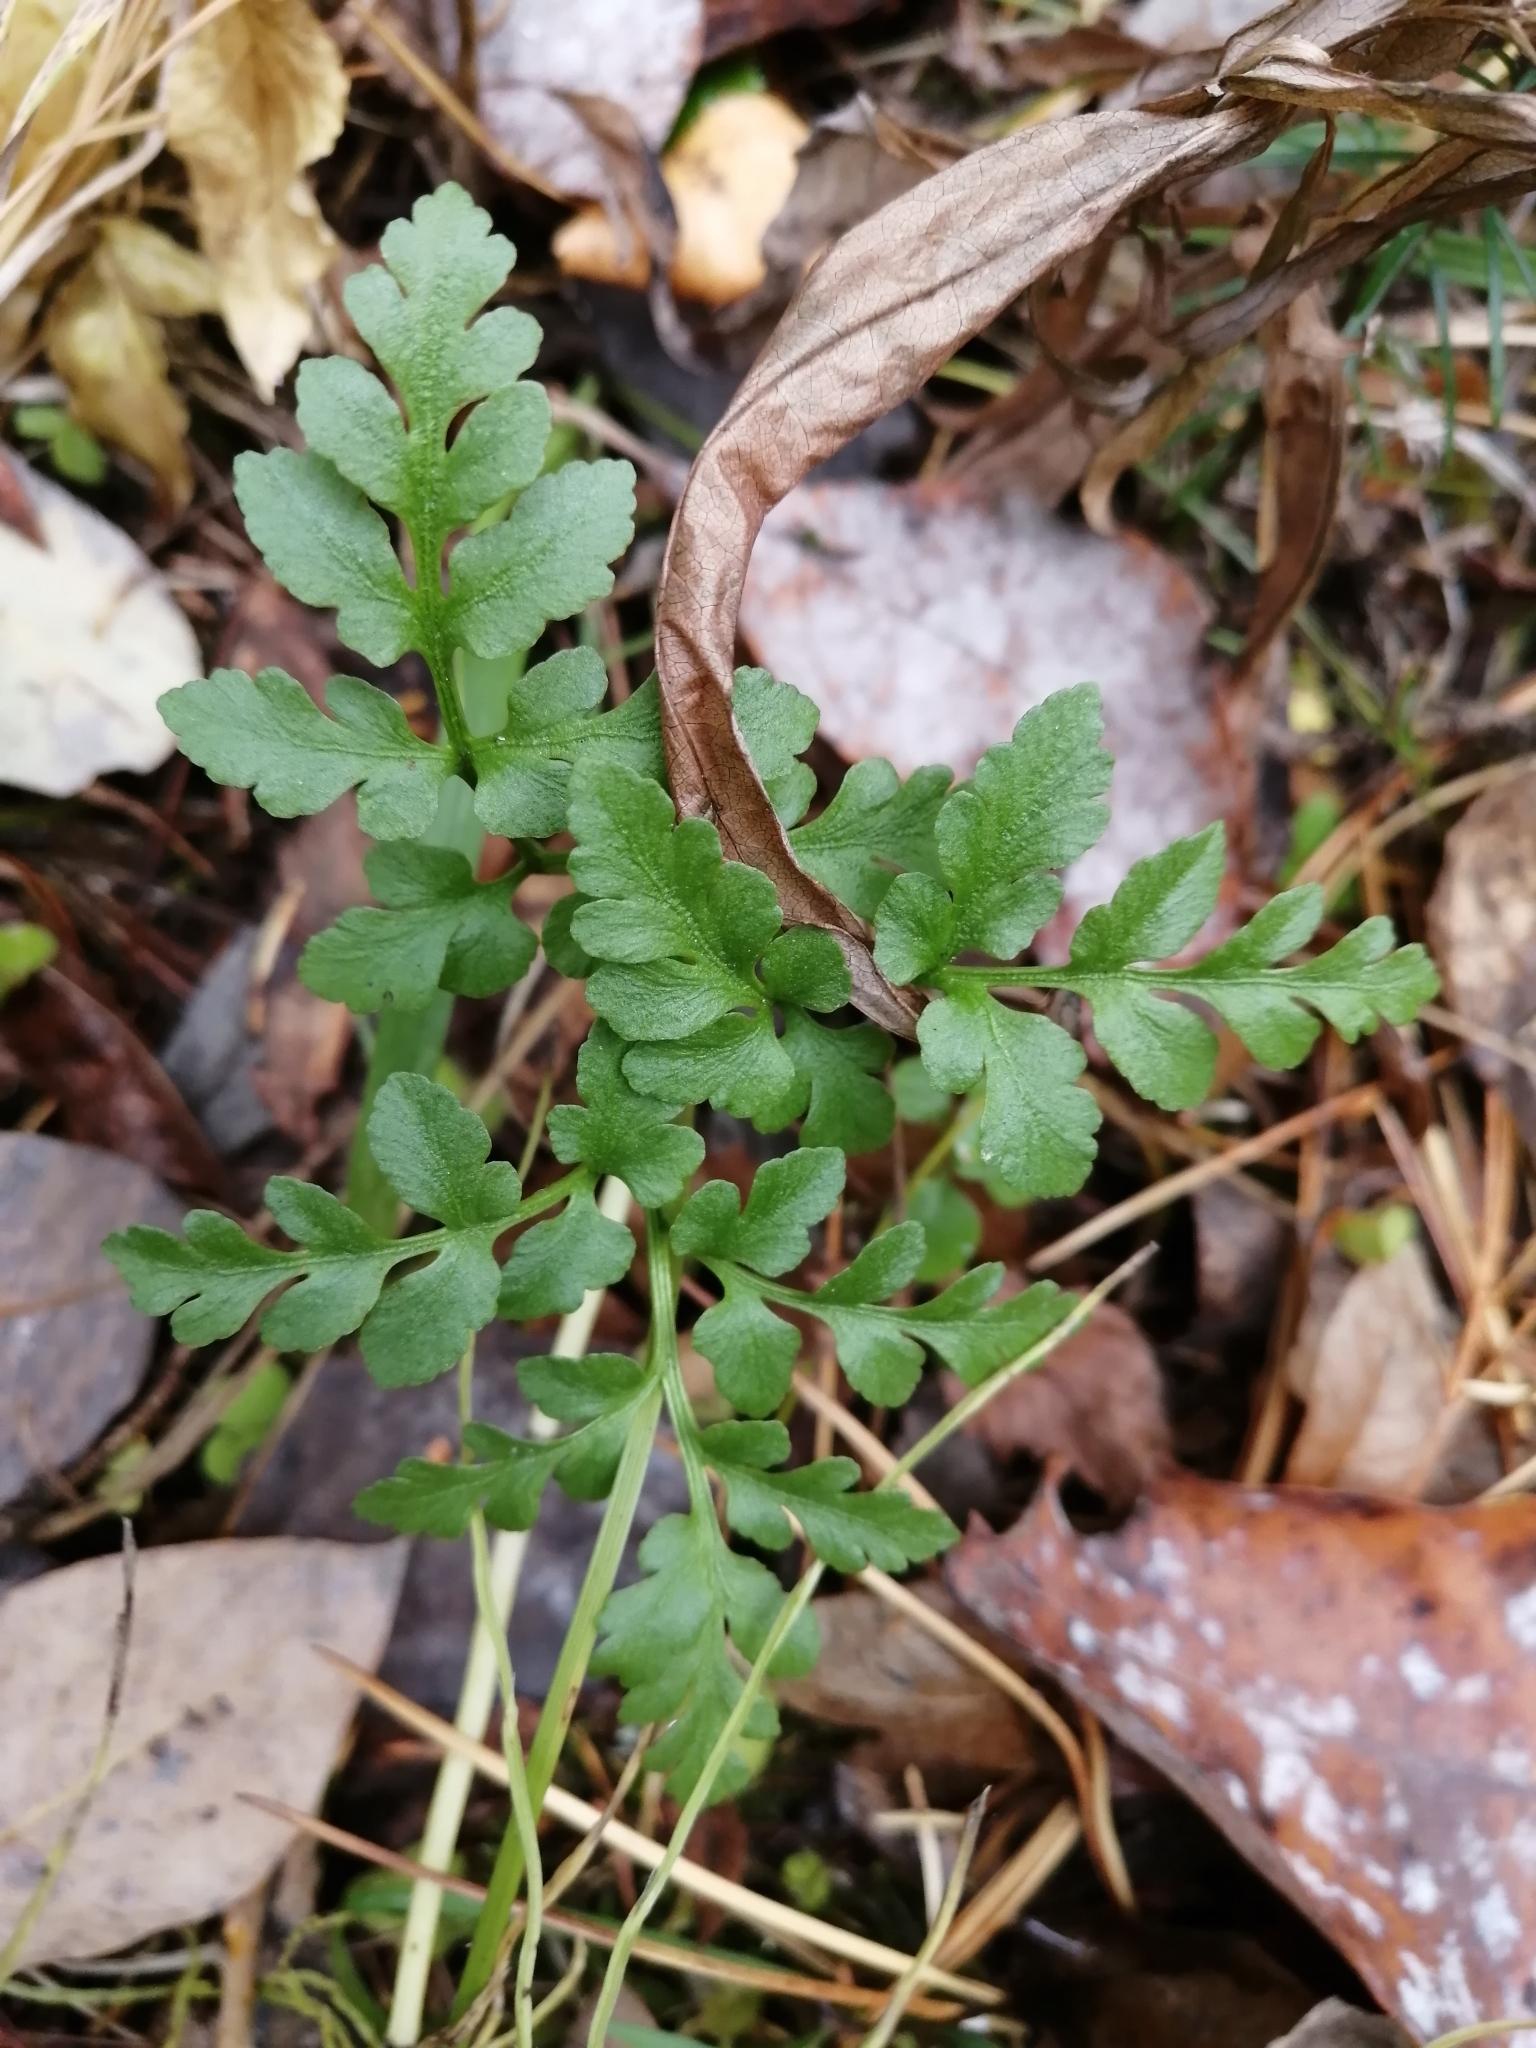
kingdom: Plantae
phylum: Tracheophyta
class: Polypodiopsida
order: Ophioglossales
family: Ophioglossaceae
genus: Sceptridium
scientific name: Sceptridium multifidum
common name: Leathery grape fern
